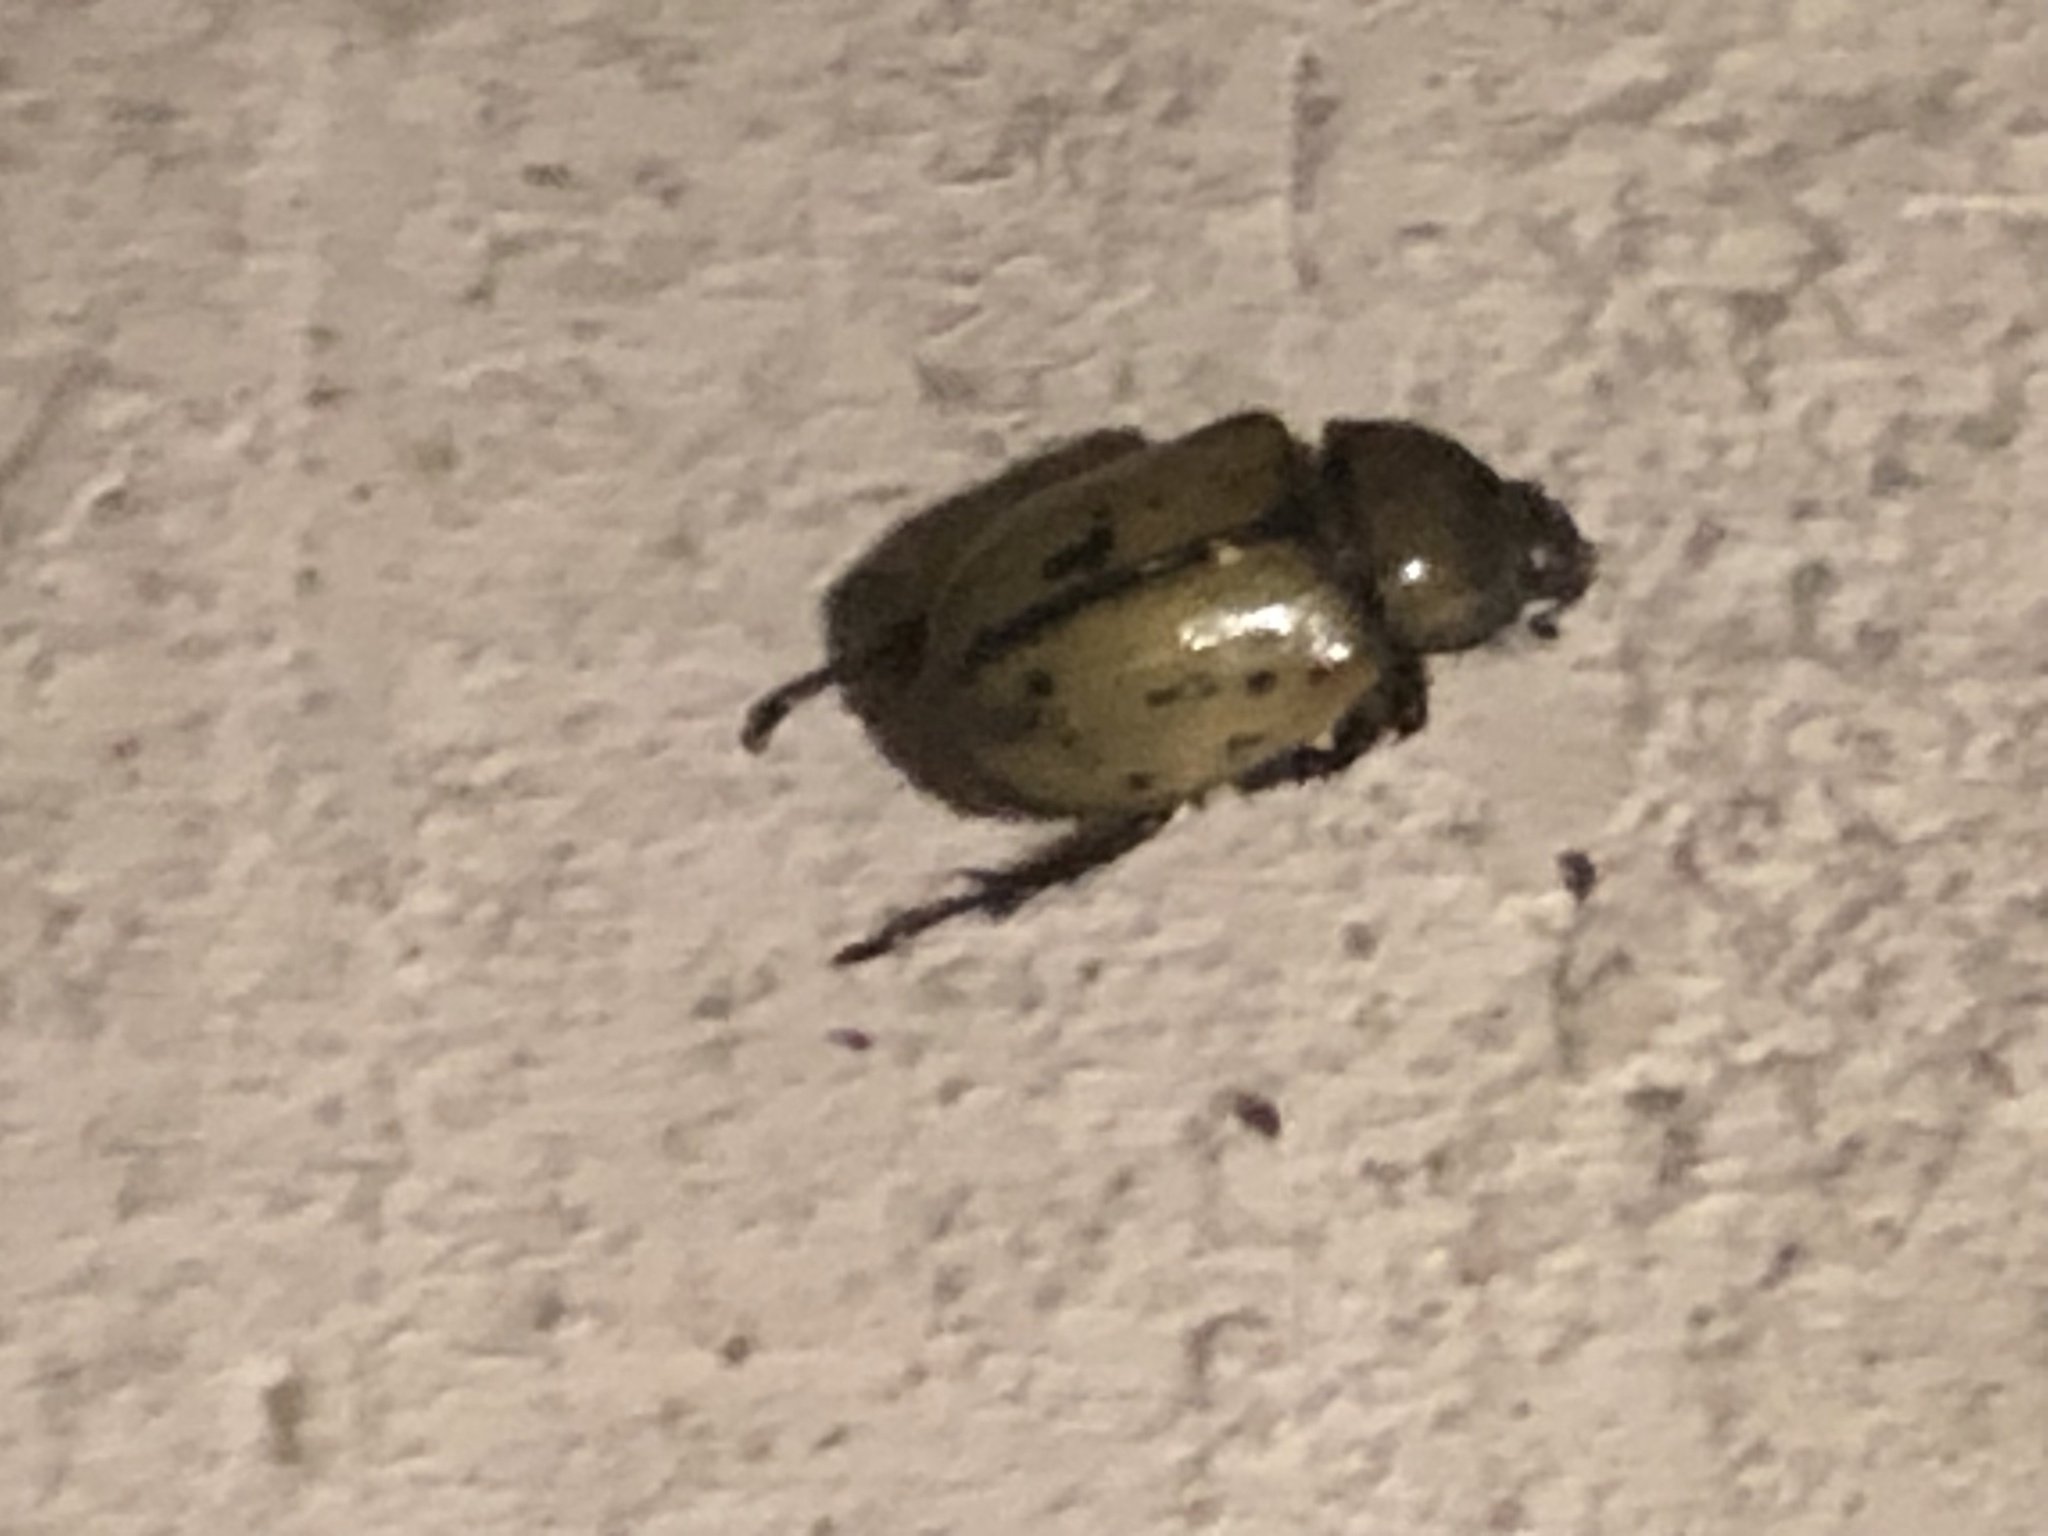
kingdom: Animalia
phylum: Arthropoda
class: Insecta
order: Coleoptera
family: Scarabaeidae
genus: Dynastes
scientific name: Dynastes tityus
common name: Eastern hercules beetle
